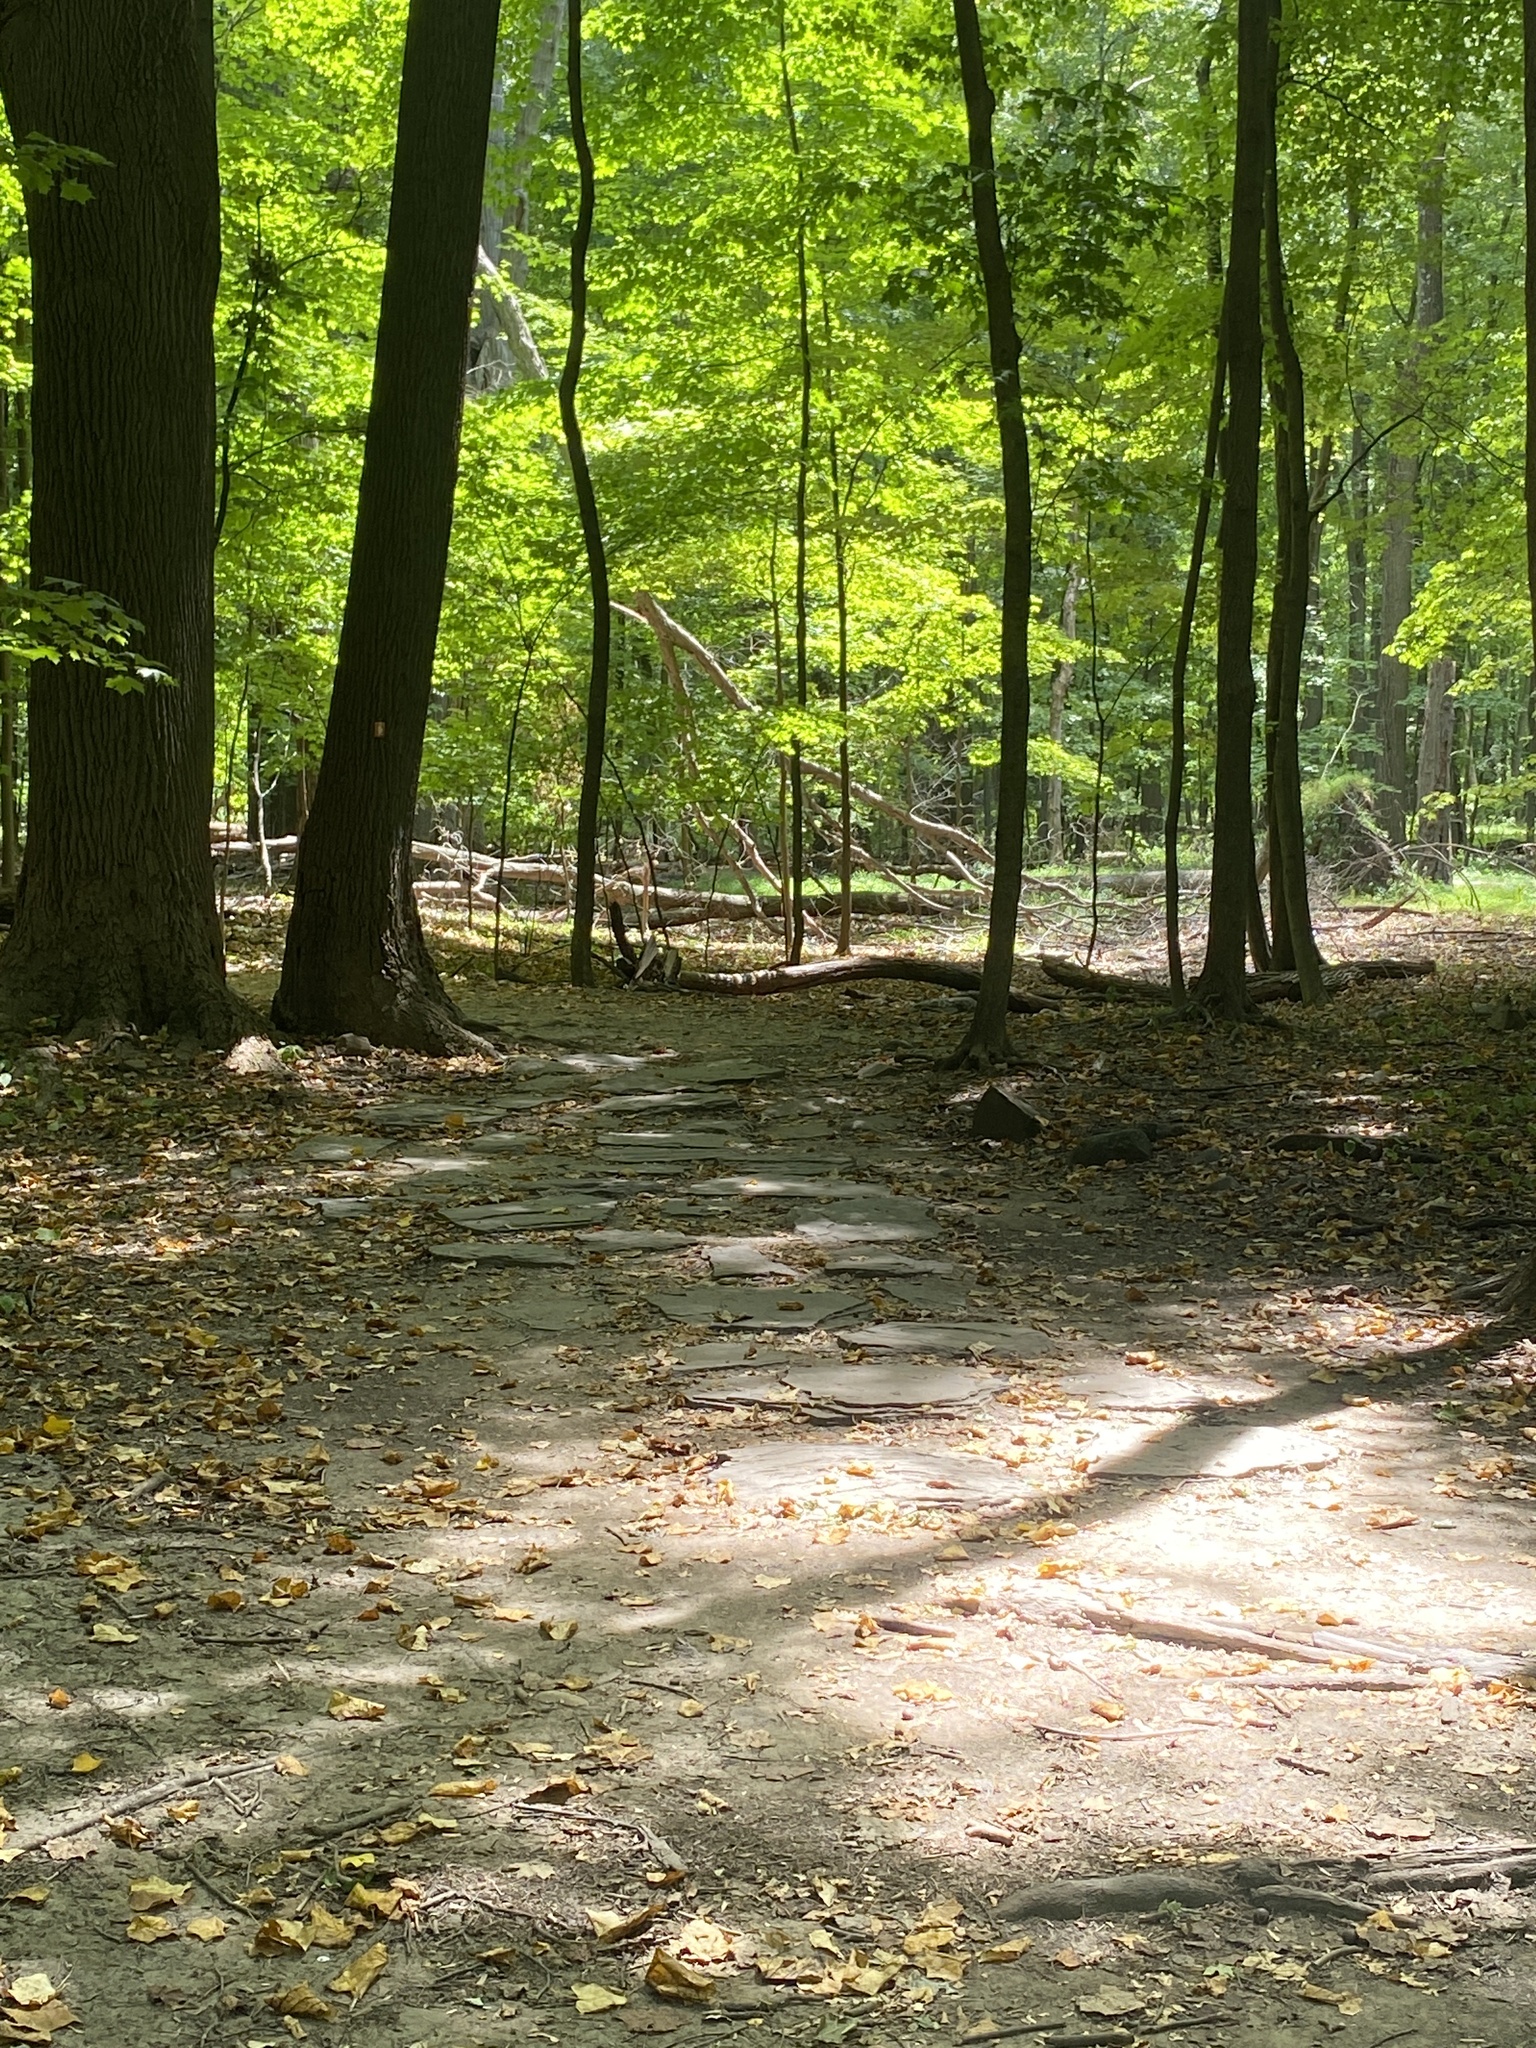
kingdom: Plantae
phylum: Tracheophyta
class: Magnoliopsida
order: Fagales
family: Juglandaceae
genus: Carya
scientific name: Carya cordiformis
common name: Bitternut hickory
